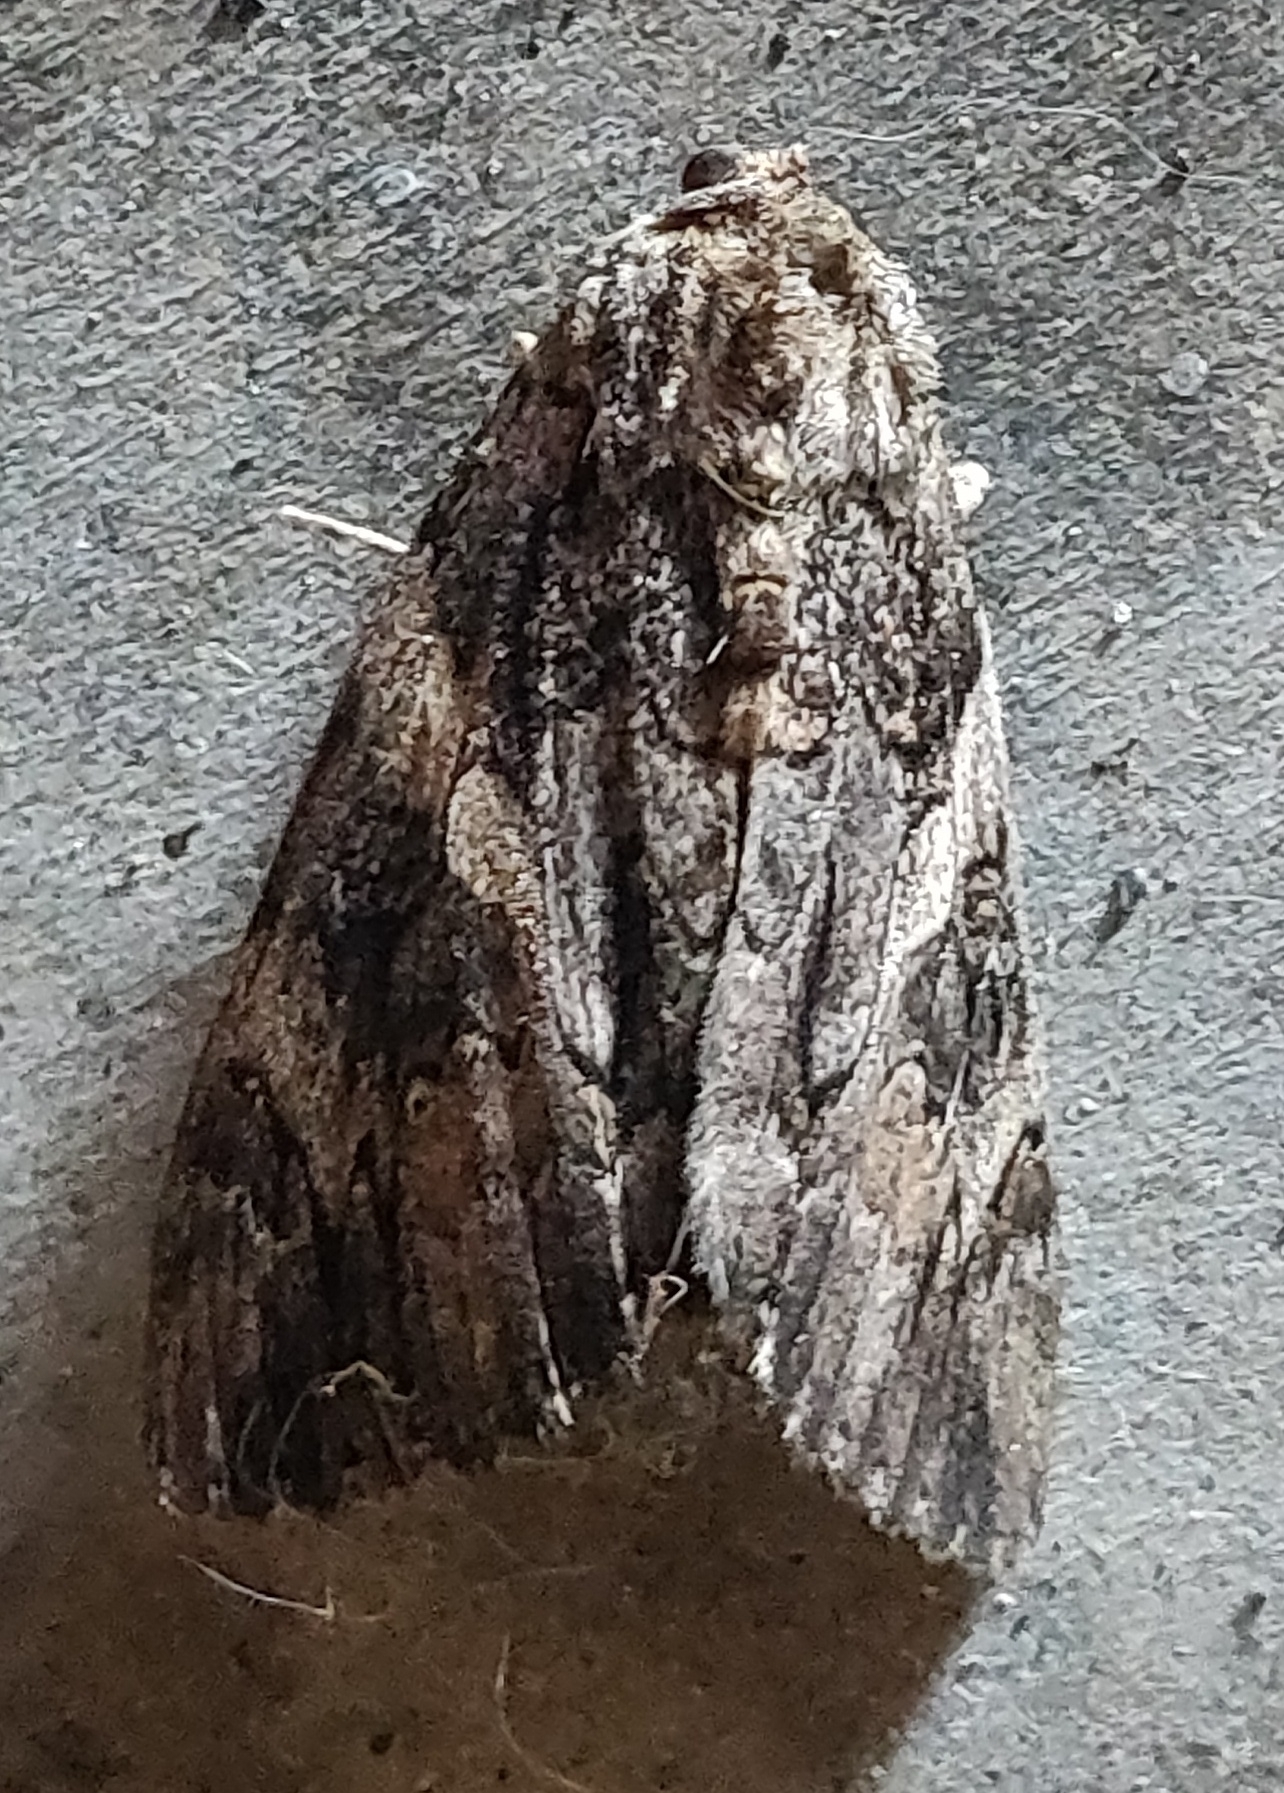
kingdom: Animalia
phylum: Arthropoda
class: Insecta
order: Lepidoptera
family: Erebidae
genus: Catocala
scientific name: Catocala piatrix
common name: The penitent underwing
